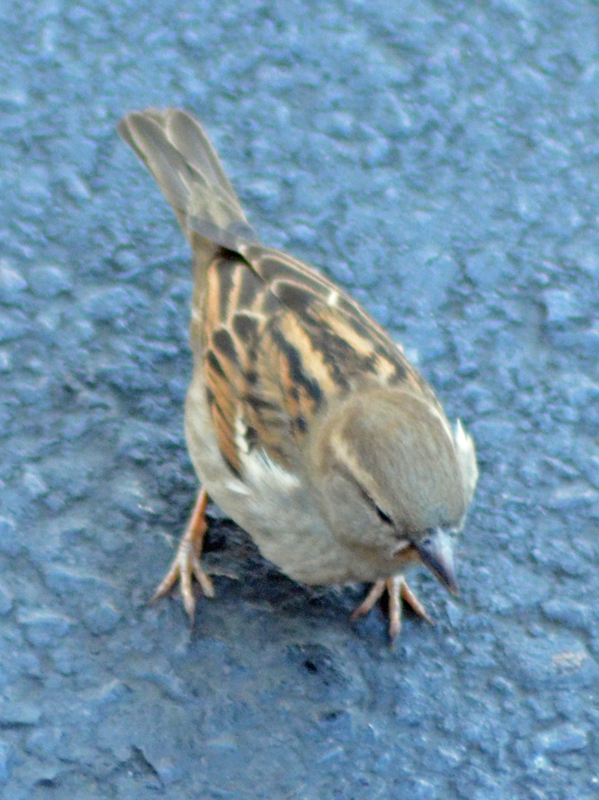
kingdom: Animalia
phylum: Chordata
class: Aves
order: Passeriformes
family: Passeridae
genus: Passer
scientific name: Passer domesticus
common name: House sparrow
